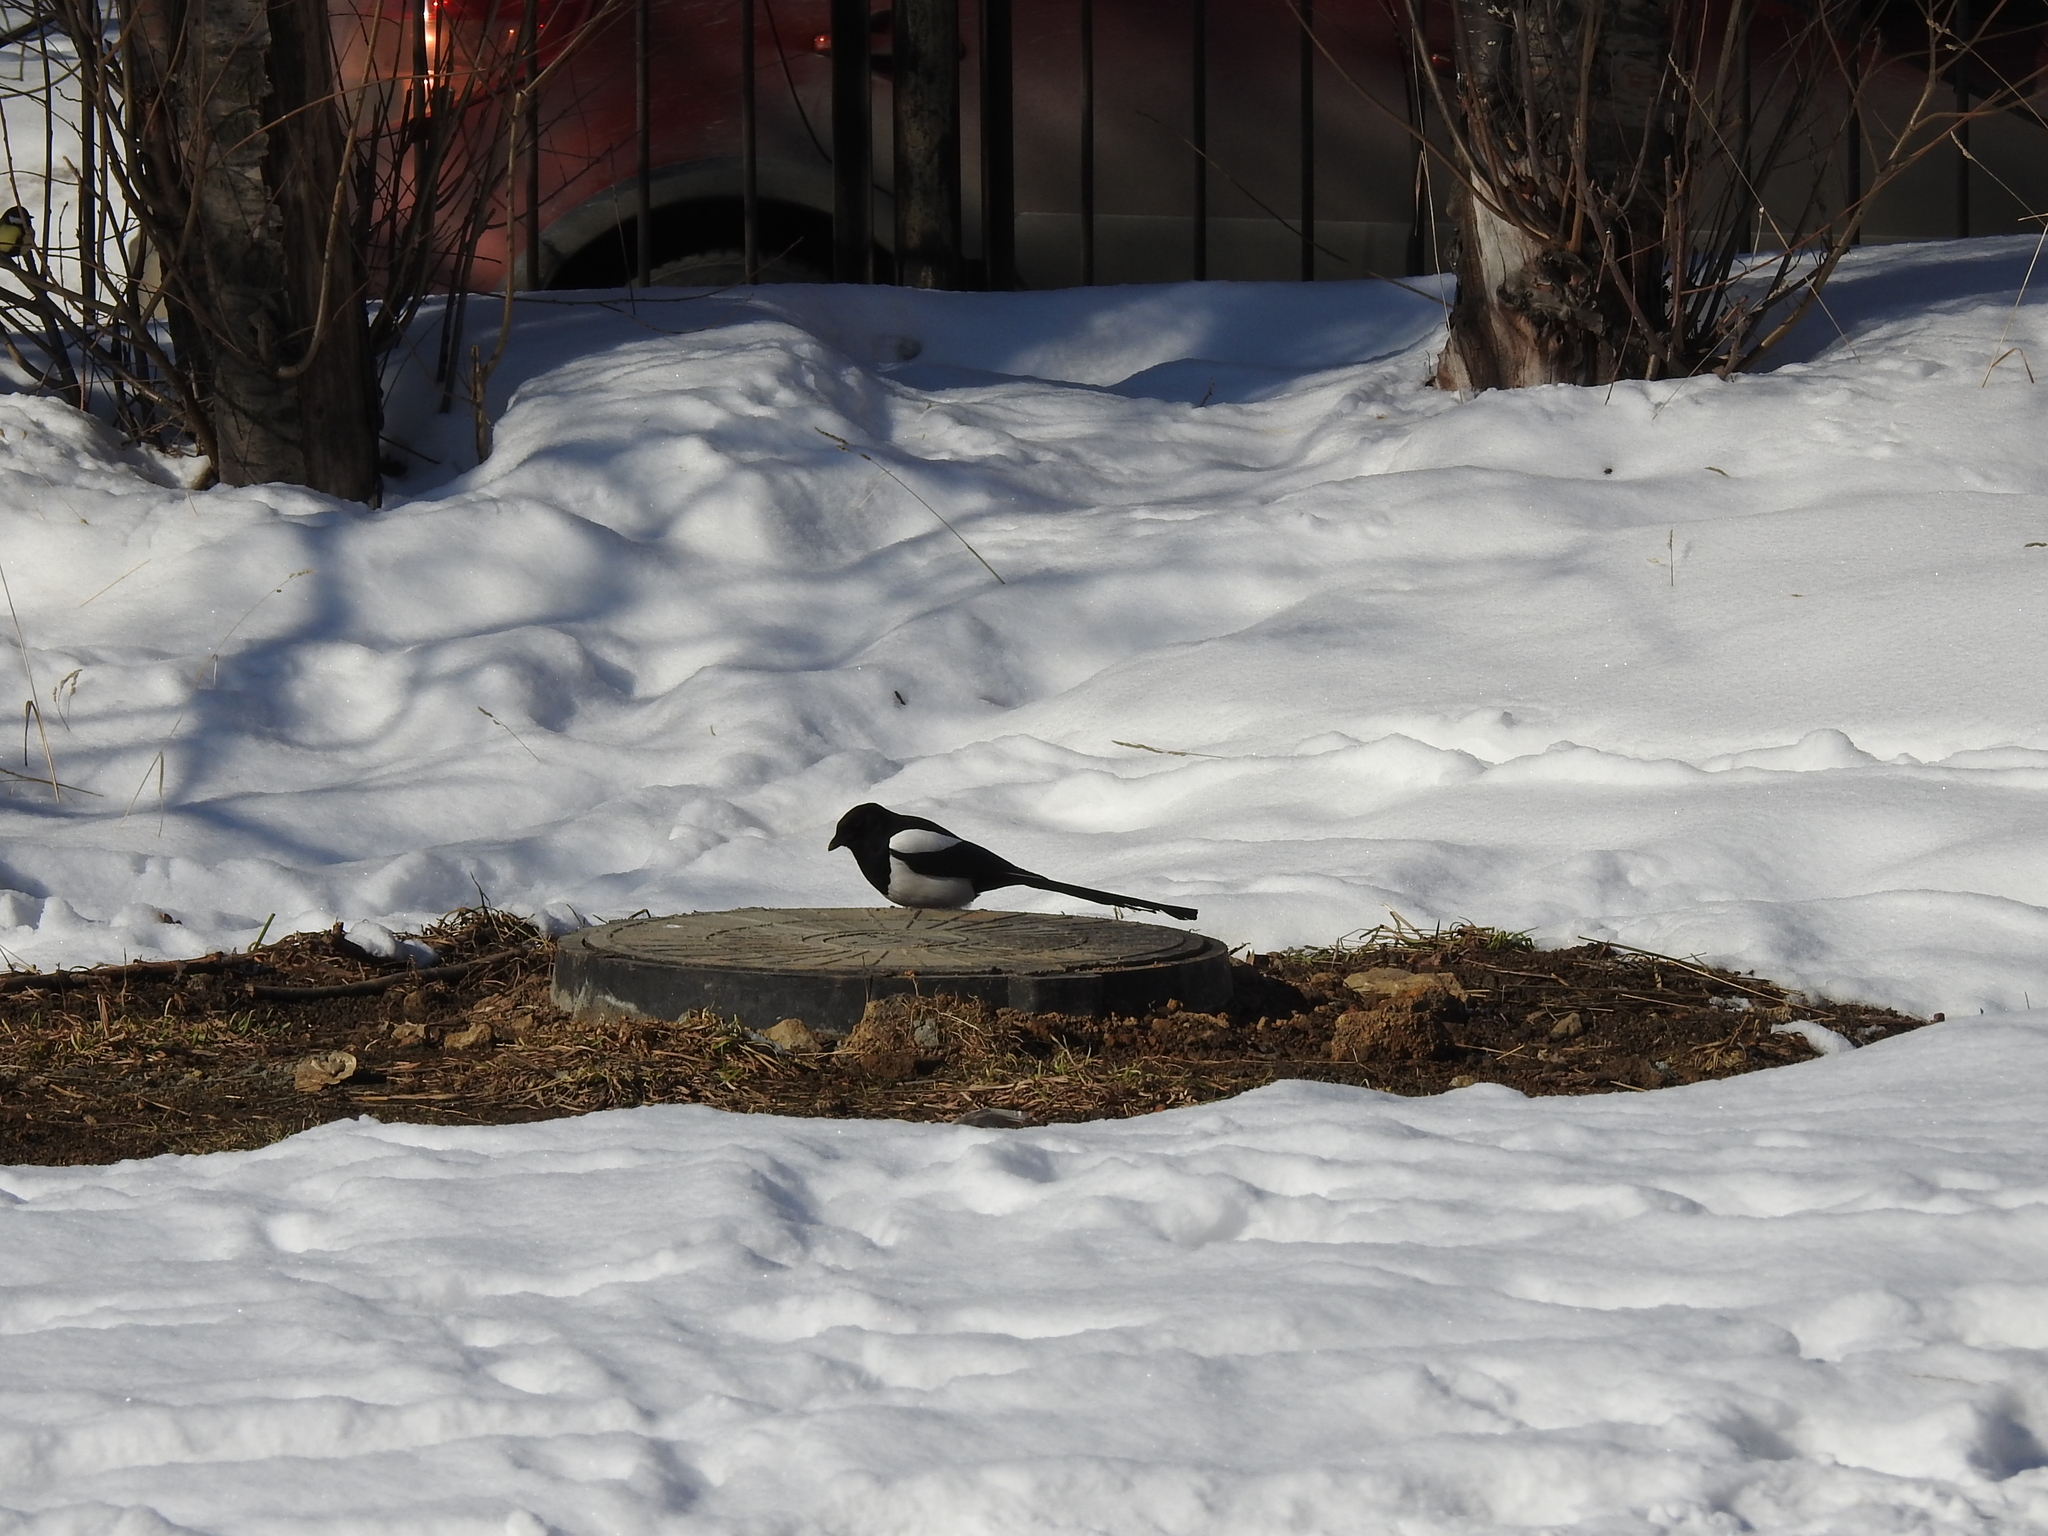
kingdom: Animalia
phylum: Chordata
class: Aves
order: Passeriformes
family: Corvidae
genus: Pica
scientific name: Pica pica
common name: Eurasian magpie
